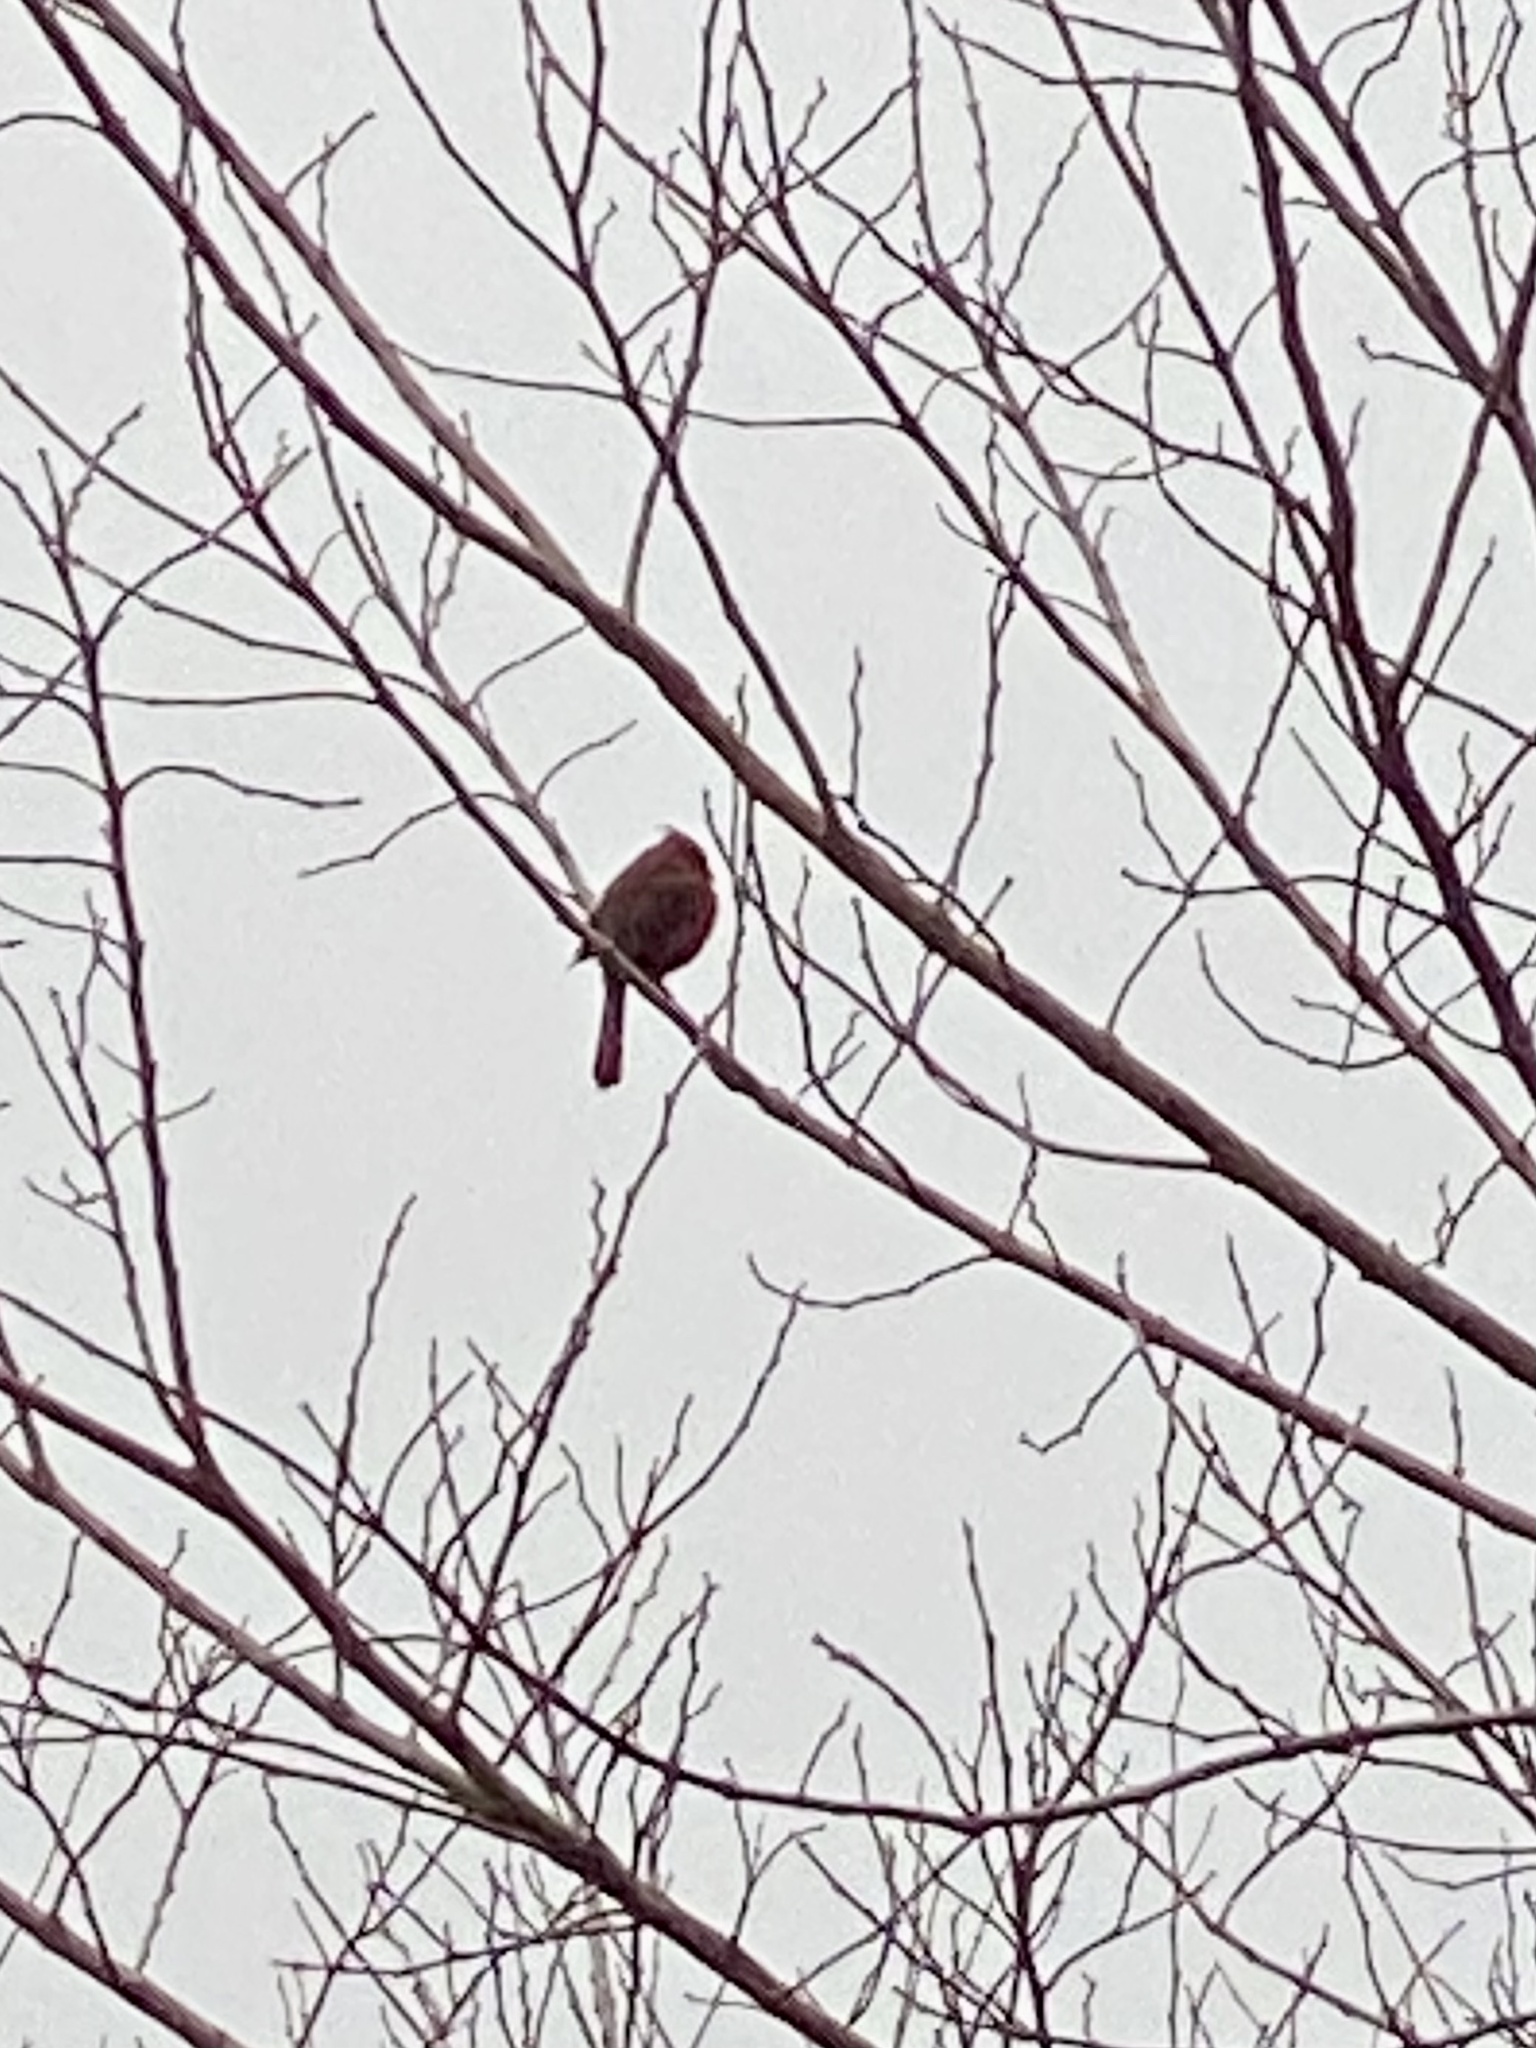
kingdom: Animalia
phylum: Chordata
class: Aves
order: Passeriformes
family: Cardinalidae
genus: Cardinalis
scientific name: Cardinalis cardinalis
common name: Northern cardinal
